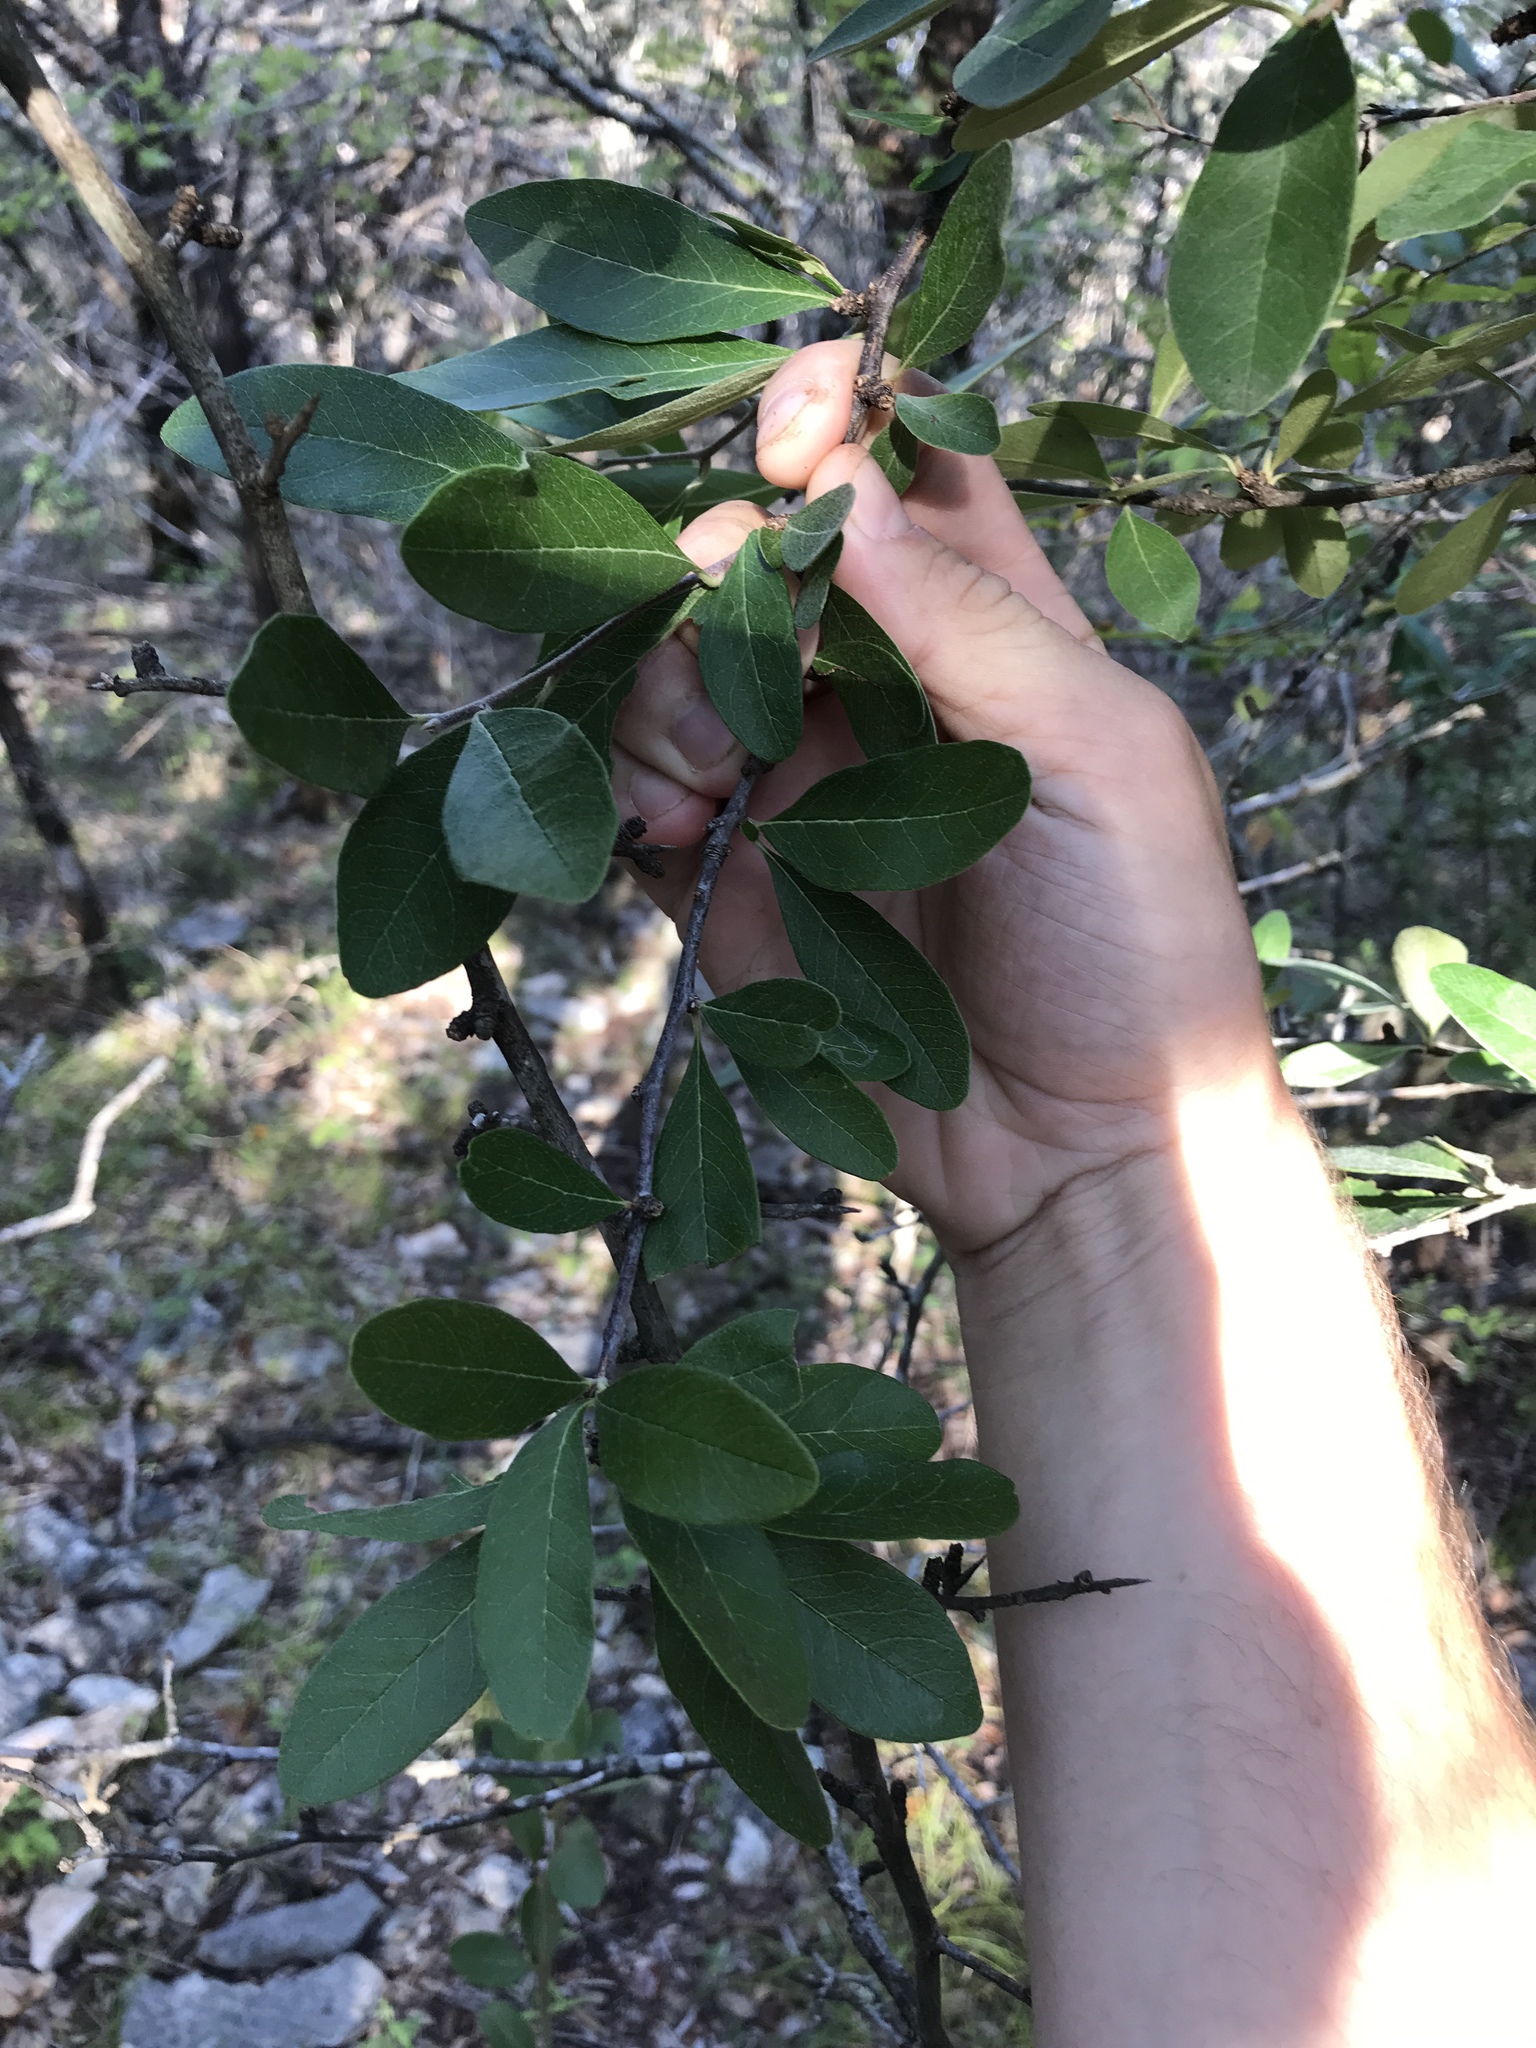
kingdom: Plantae
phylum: Tracheophyta
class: Magnoliopsida
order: Ericales
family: Sapotaceae
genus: Sideroxylon
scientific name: Sideroxylon lanuginosum
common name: Chittamwood
